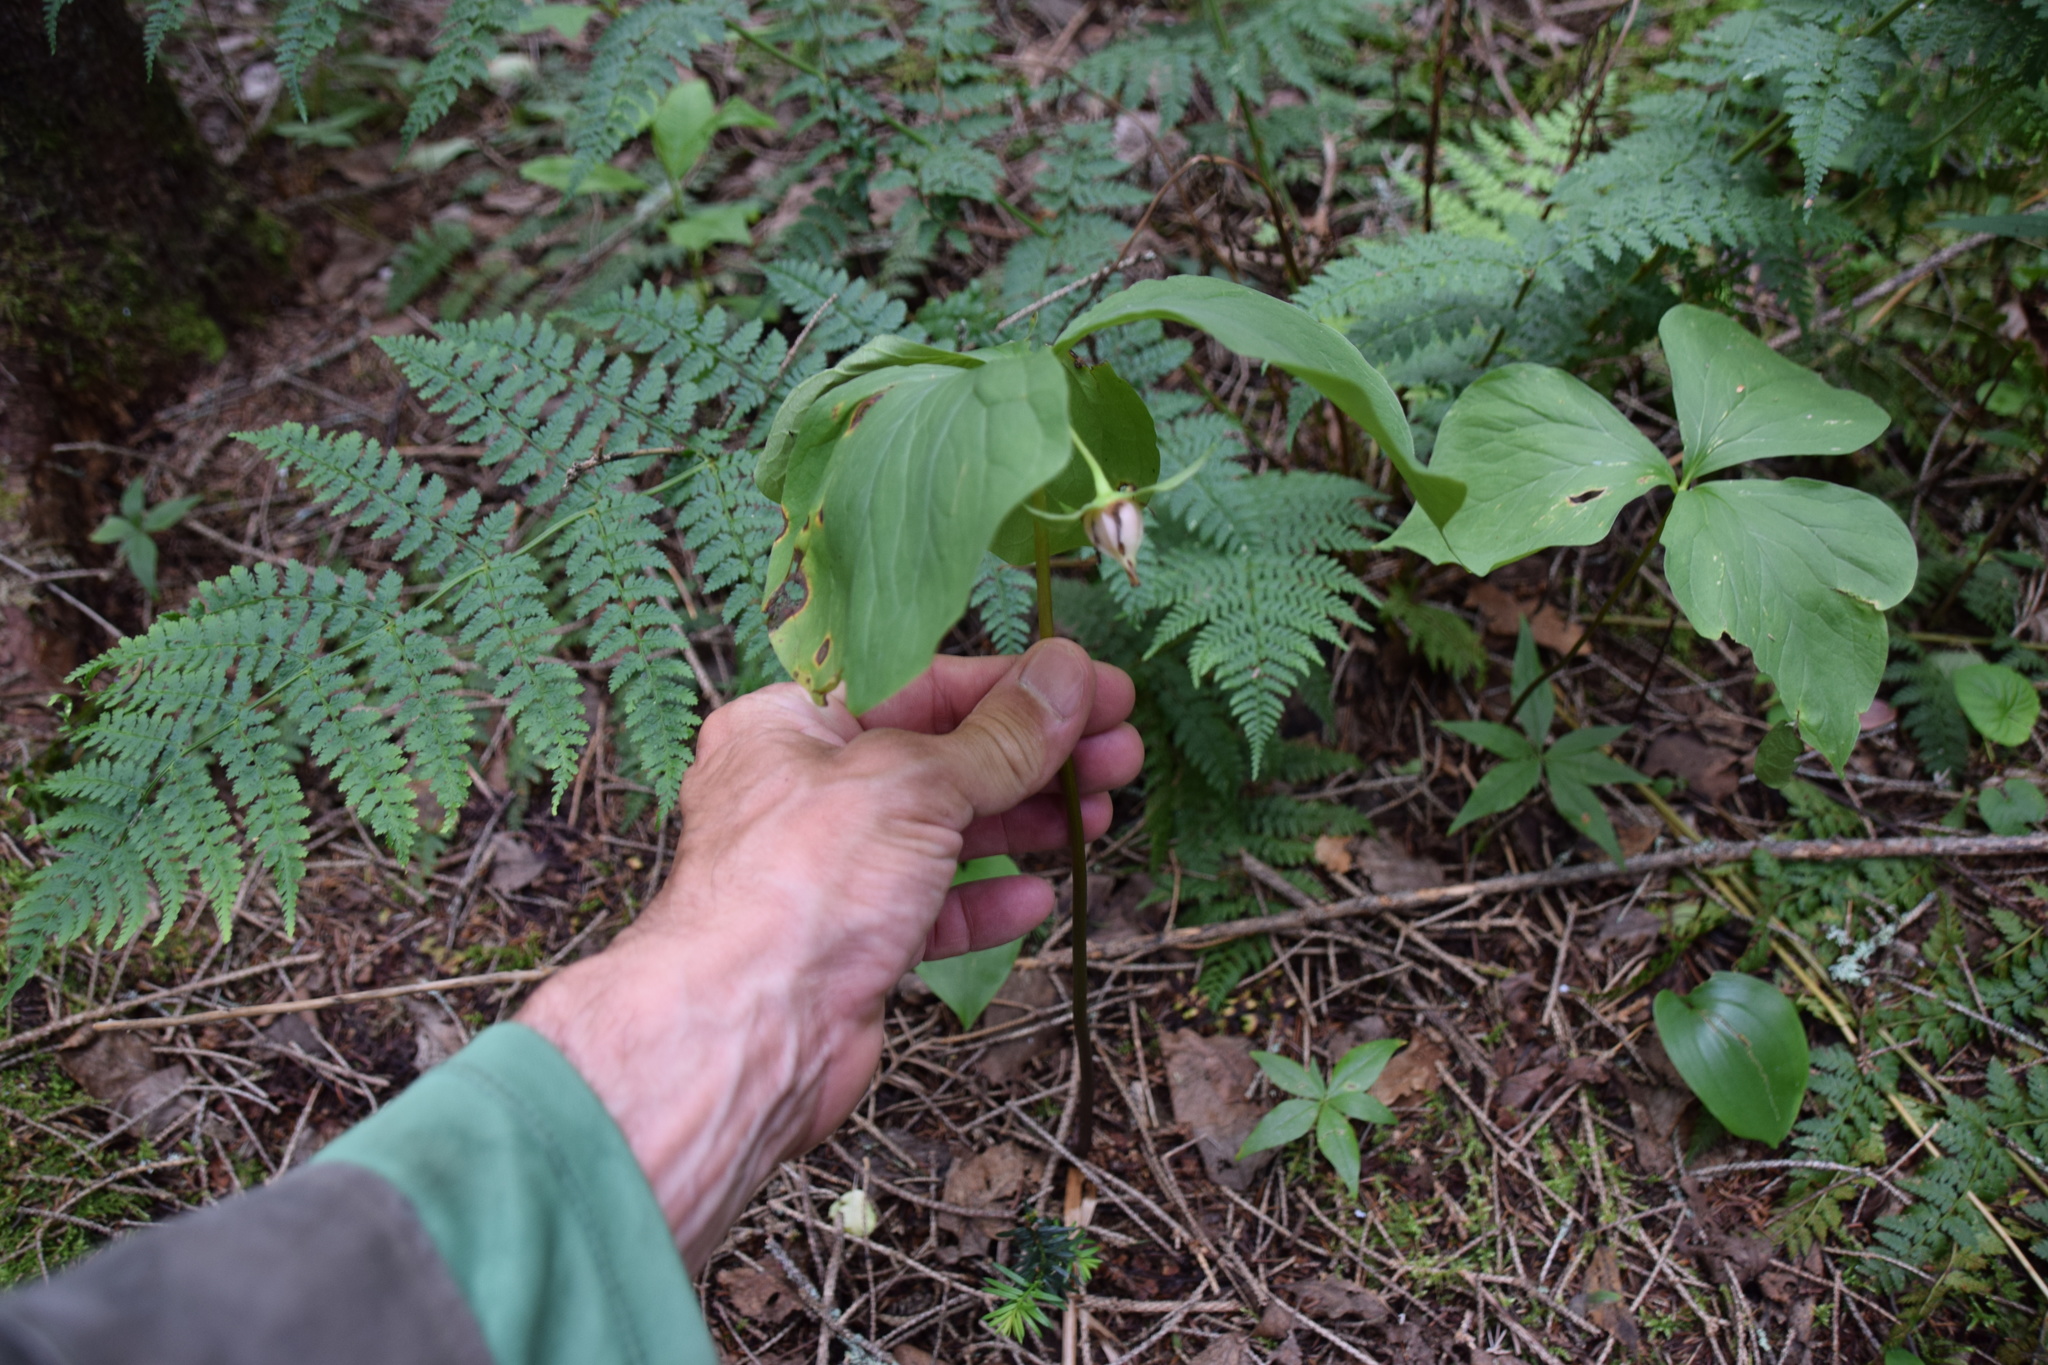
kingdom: Plantae
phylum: Tracheophyta
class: Liliopsida
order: Liliales
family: Melanthiaceae
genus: Trillium
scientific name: Trillium cernuum
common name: Nodding trillium
